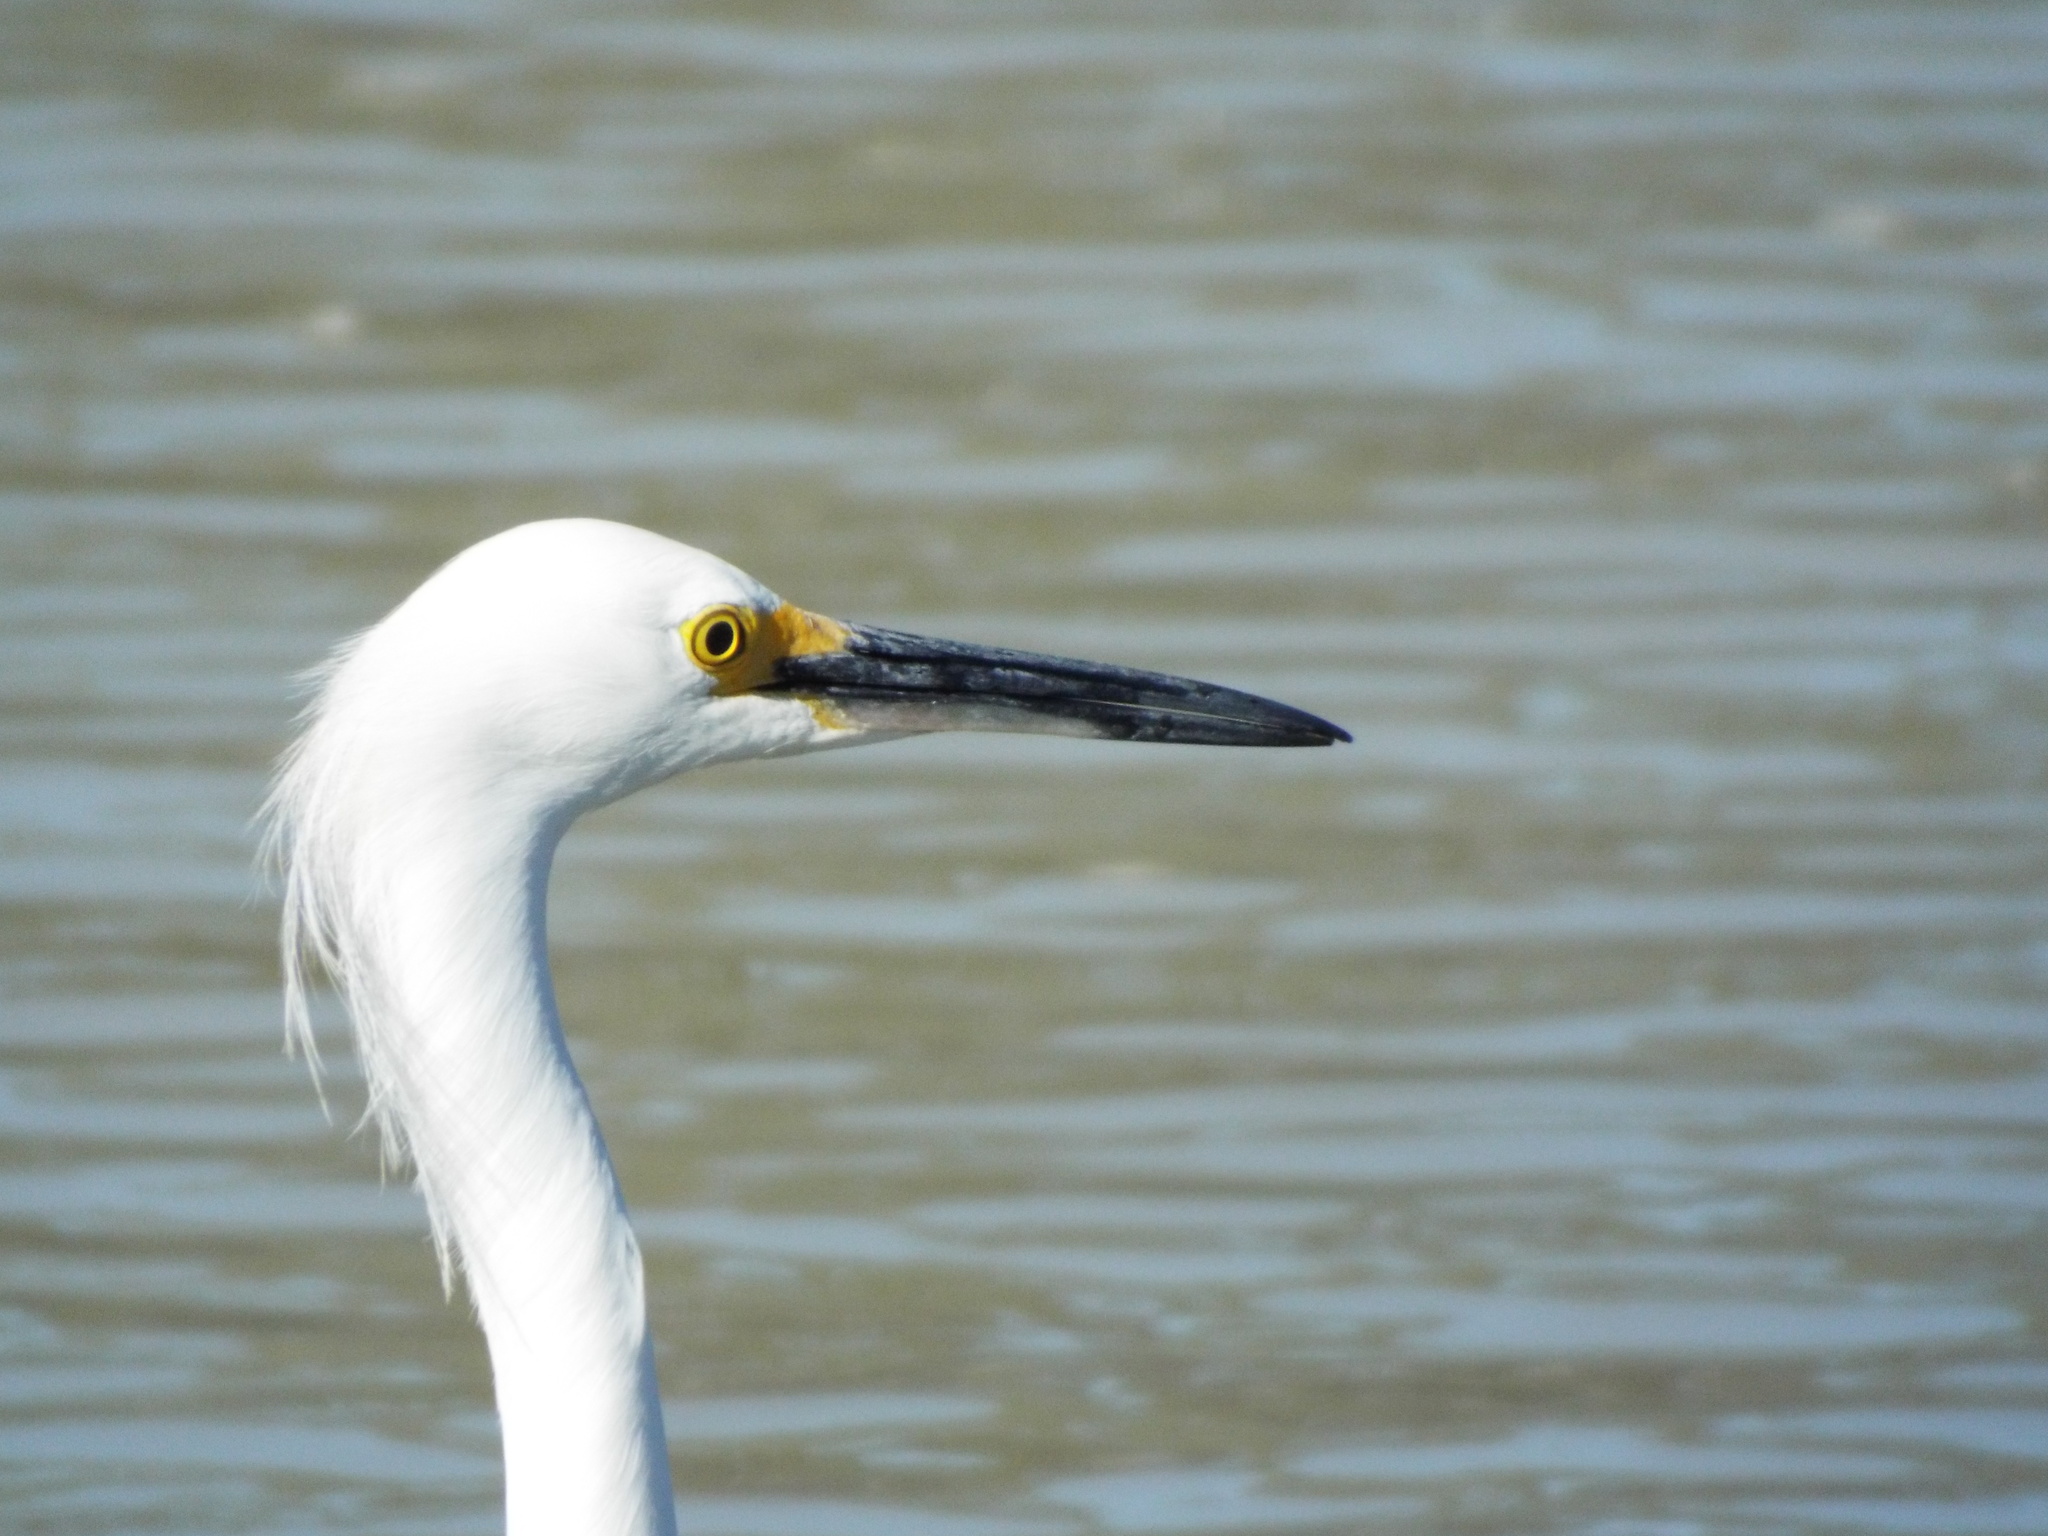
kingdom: Animalia
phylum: Chordata
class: Aves
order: Pelecaniformes
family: Ardeidae
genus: Egretta
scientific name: Egretta thula
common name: Snowy egret
